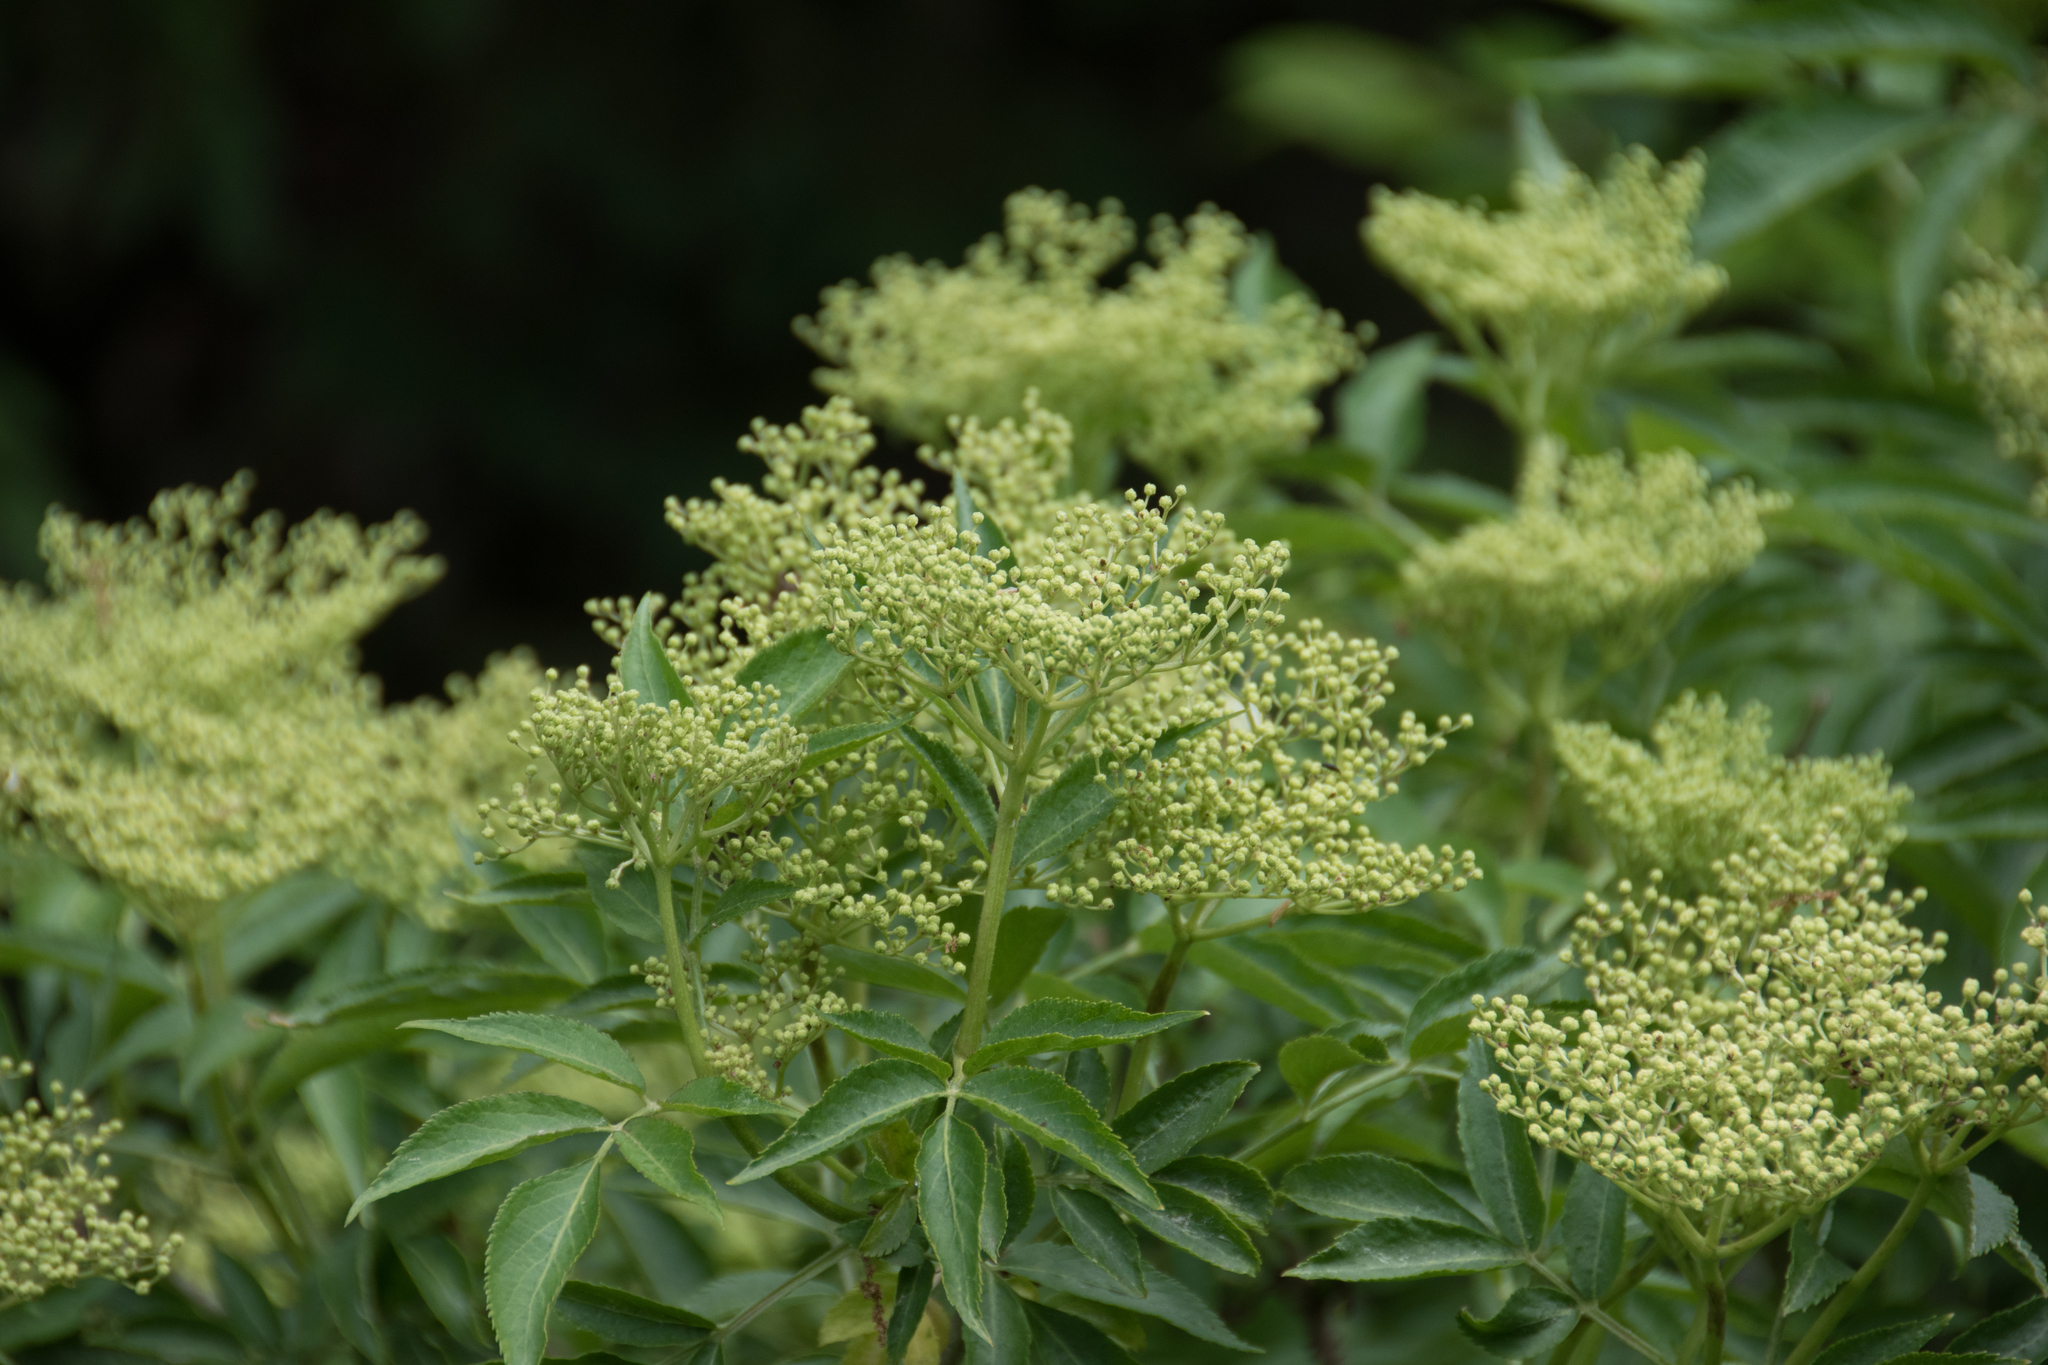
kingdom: Plantae
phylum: Tracheophyta
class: Magnoliopsida
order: Dipsacales
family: Viburnaceae
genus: Sambucus
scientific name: Sambucus nigra
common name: Elder
